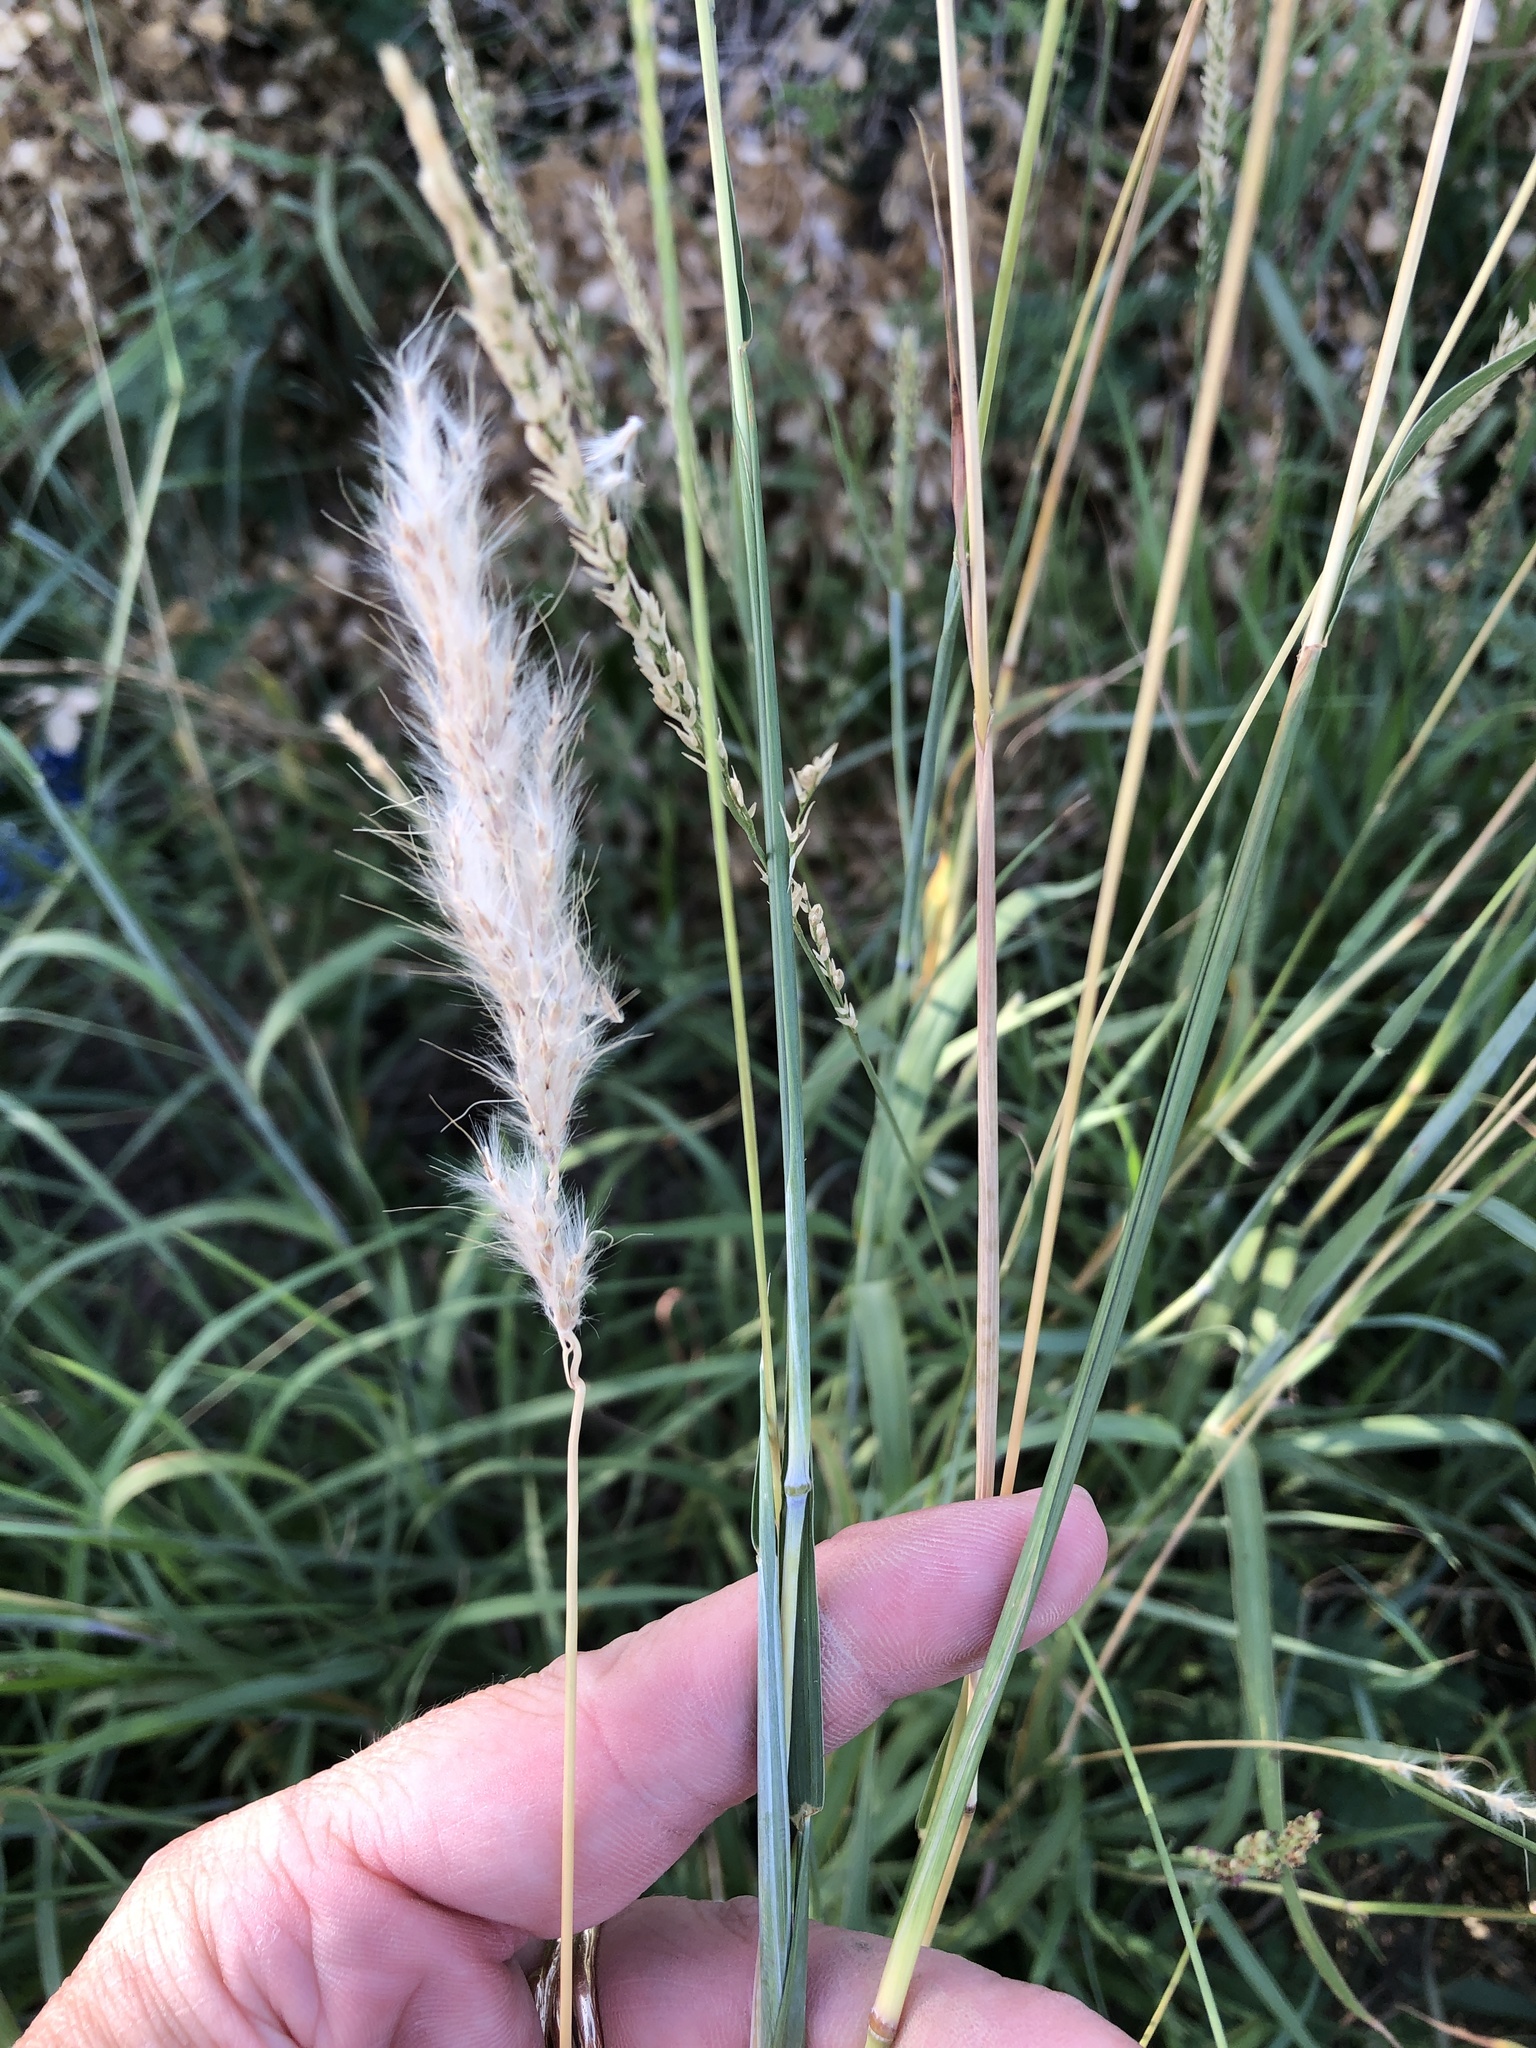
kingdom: Plantae
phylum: Tracheophyta
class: Liliopsida
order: Poales
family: Poaceae
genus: Bothriochloa
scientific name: Bothriochloa torreyana
